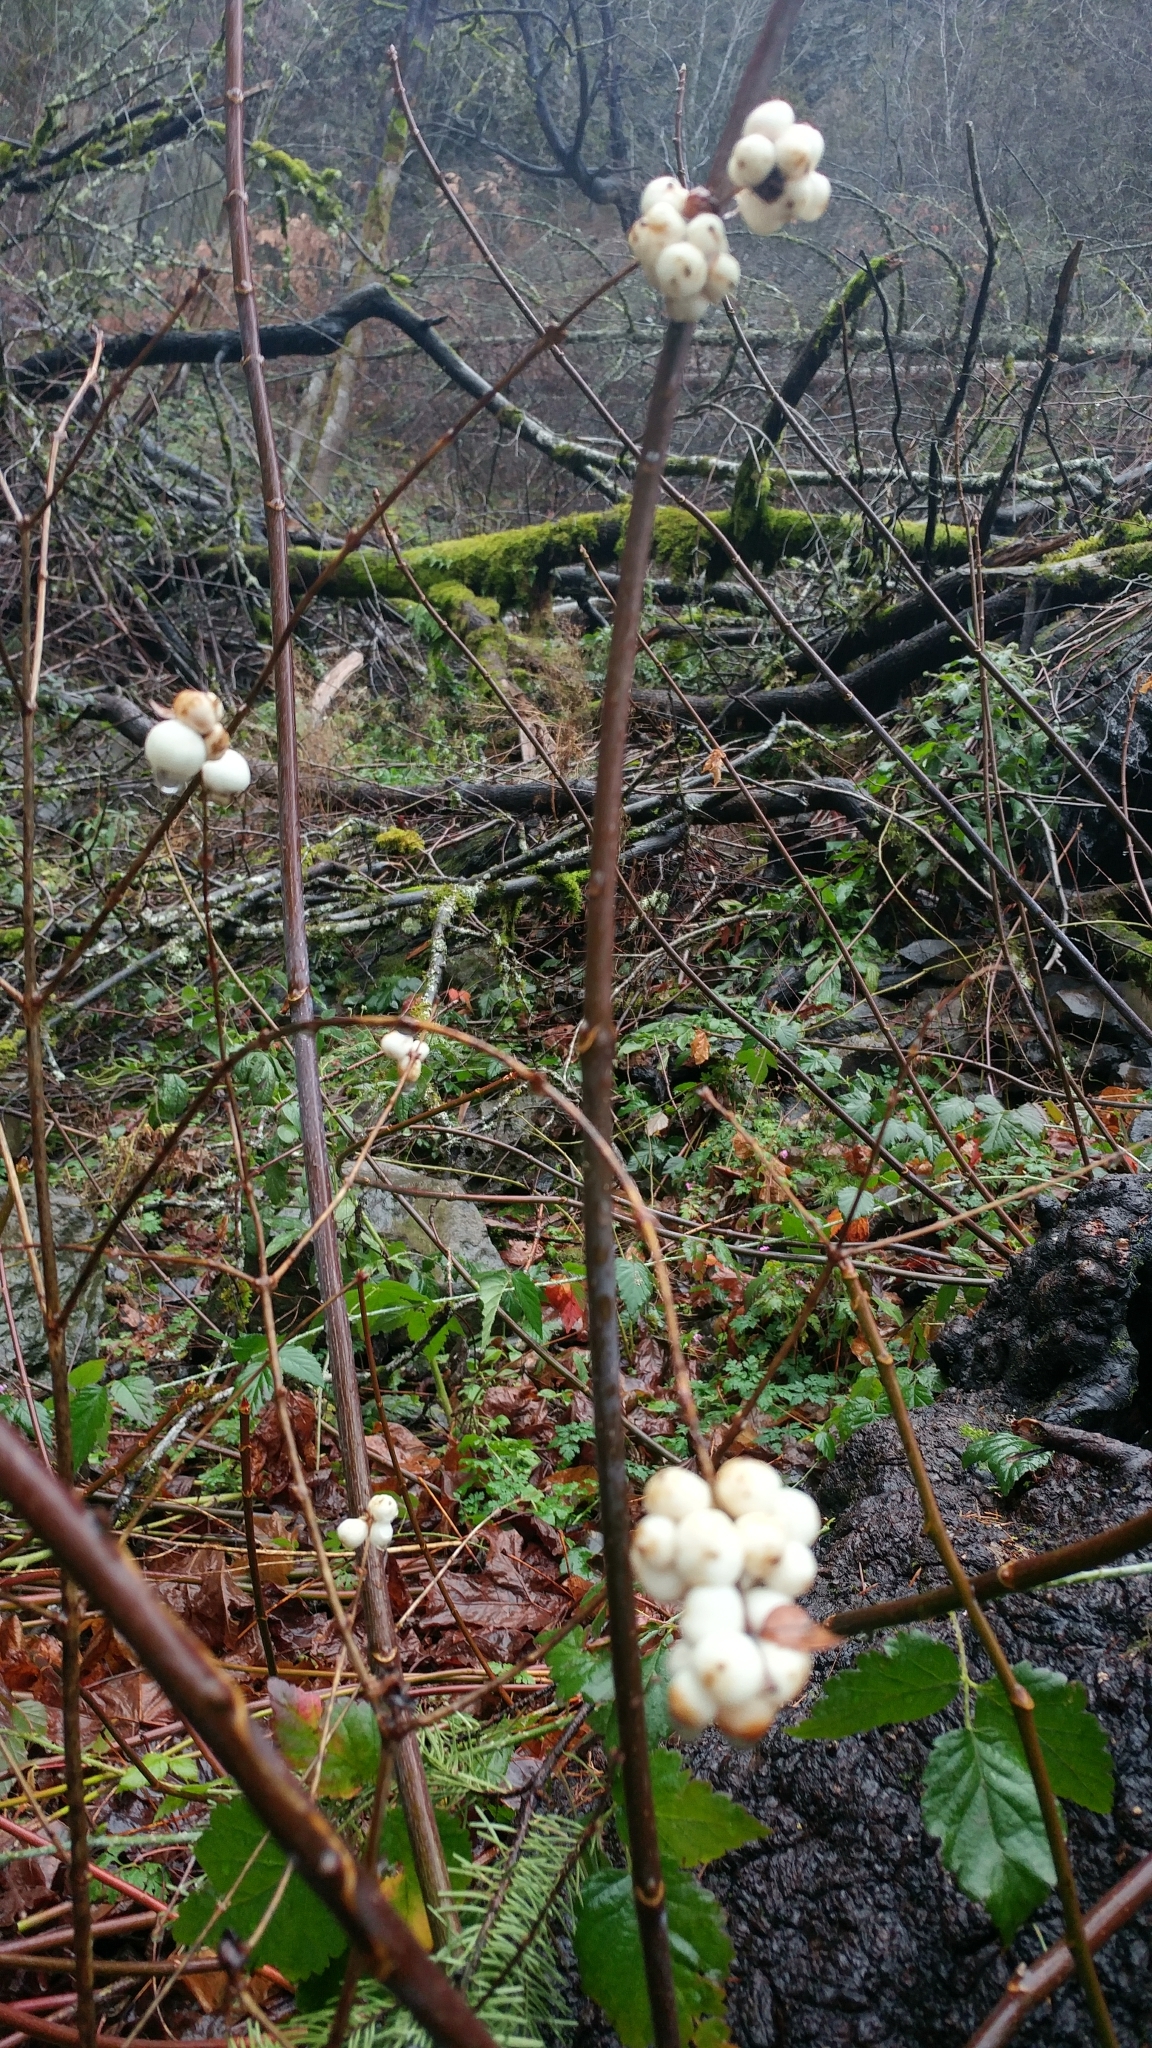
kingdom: Plantae
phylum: Tracheophyta
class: Magnoliopsida
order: Dipsacales
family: Caprifoliaceae
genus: Symphoricarpos
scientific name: Symphoricarpos albus
